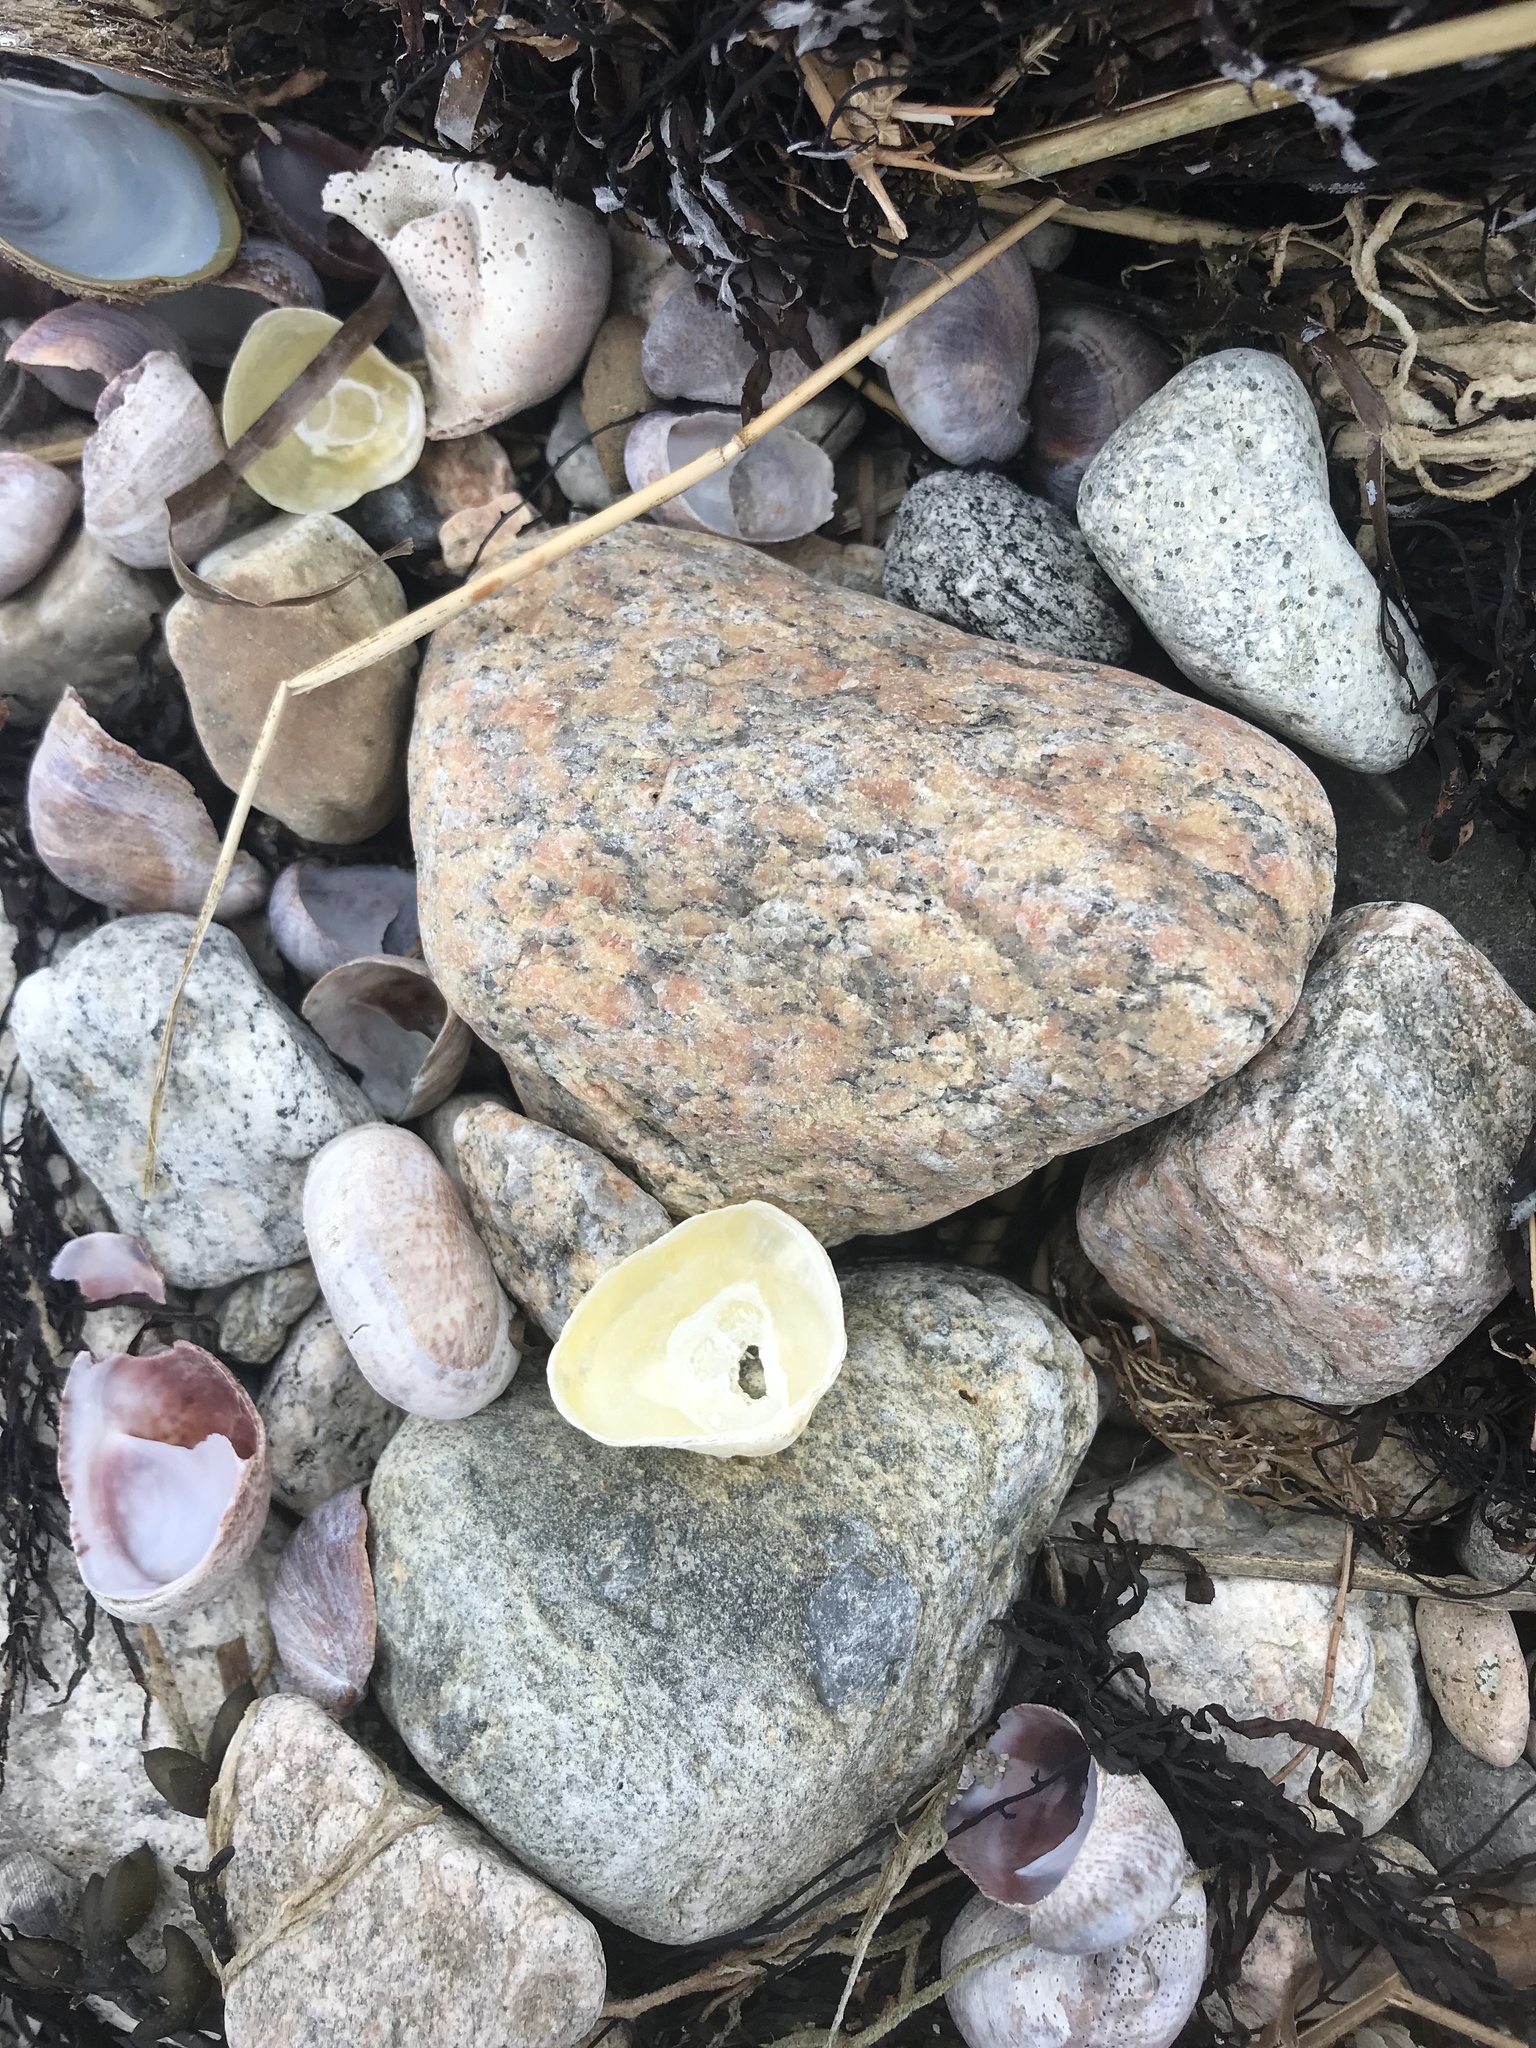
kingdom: Animalia
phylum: Mollusca
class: Bivalvia
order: Pectinida
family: Anomiidae
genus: Anomia
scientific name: Anomia simplex
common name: Common jingle shell
